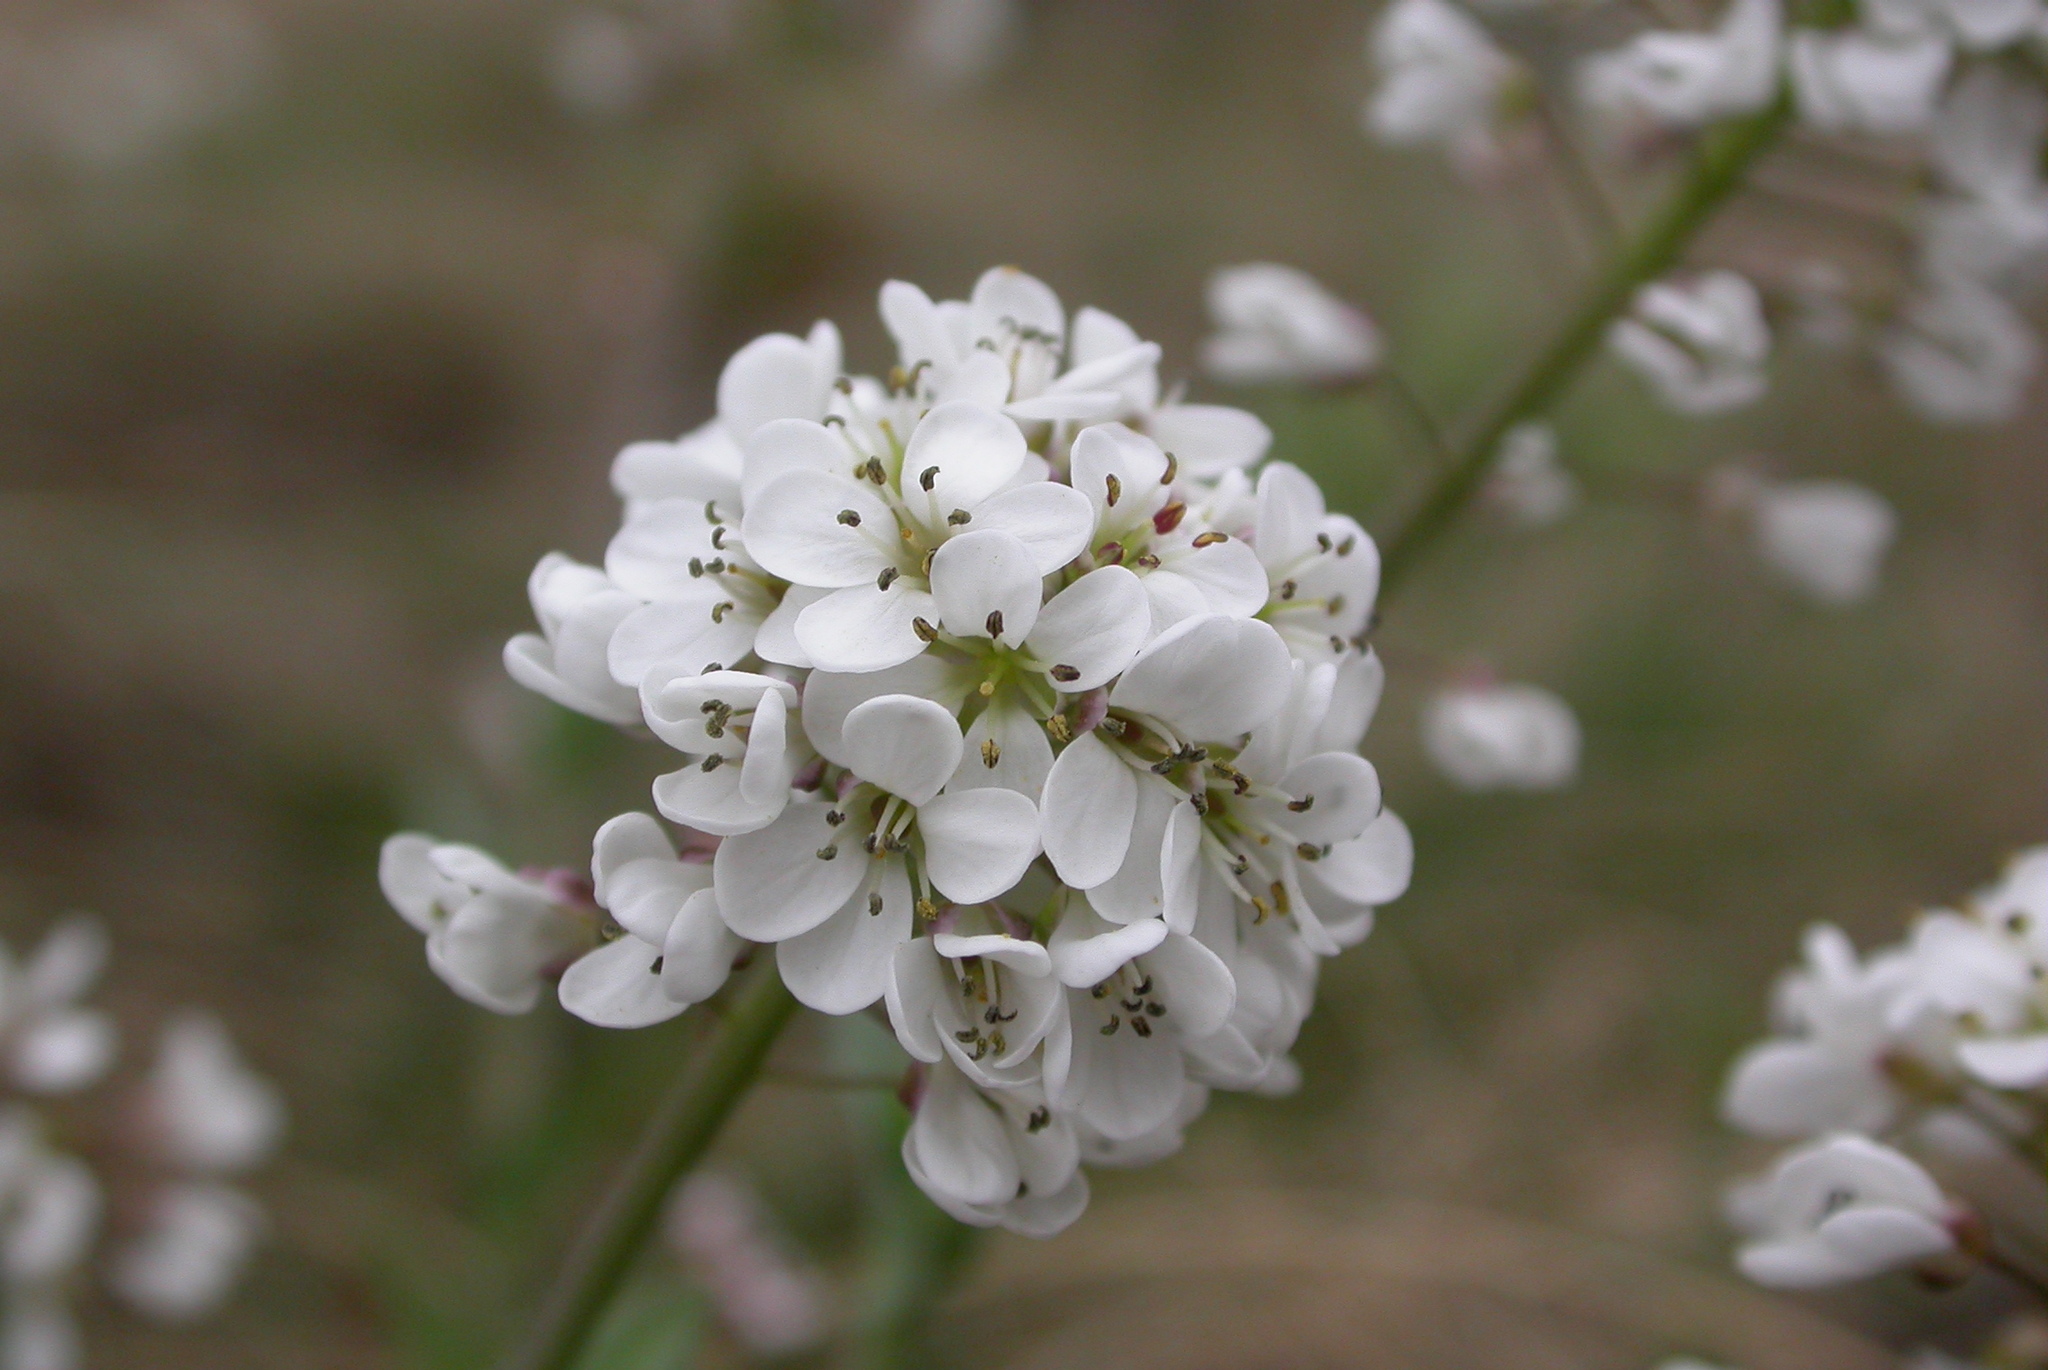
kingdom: Plantae
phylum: Tracheophyta
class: Magnoliopsida
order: Brassicales
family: Brassicaceae
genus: Noccaea
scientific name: Noccaea caerulescens
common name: Alpine pennycress
